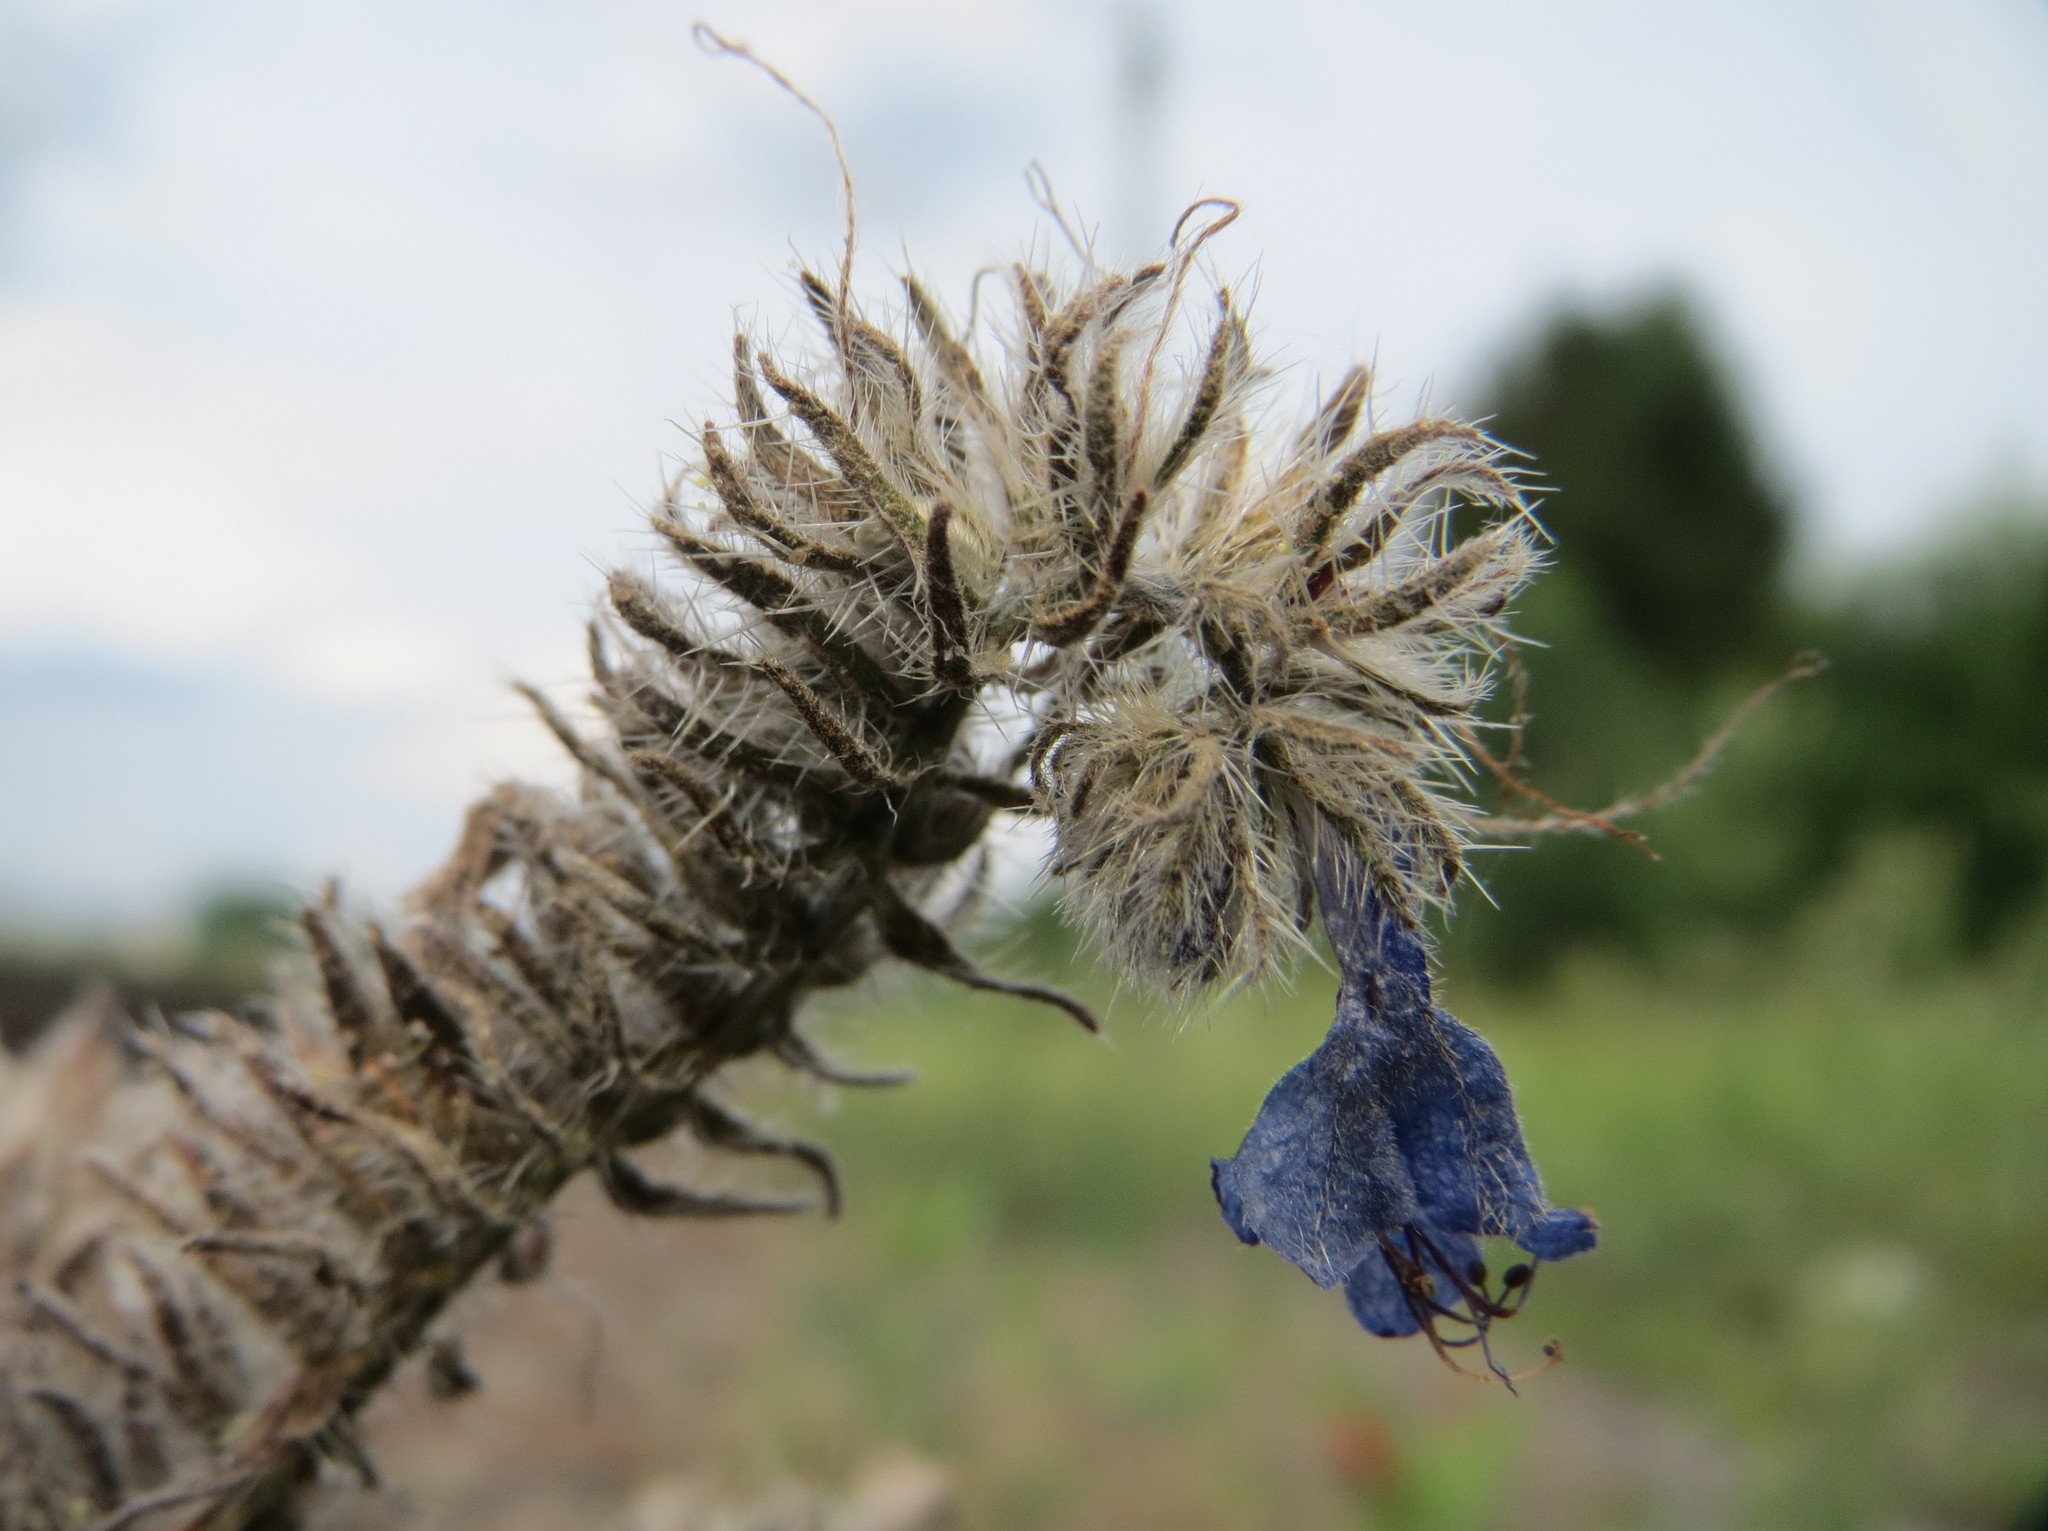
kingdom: Plantae
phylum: Tracheophyta
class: Magnoliopsida
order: Boraginales
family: Boraginaceae
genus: Echium
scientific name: Echium vulgare
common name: Common viper's bugloss
